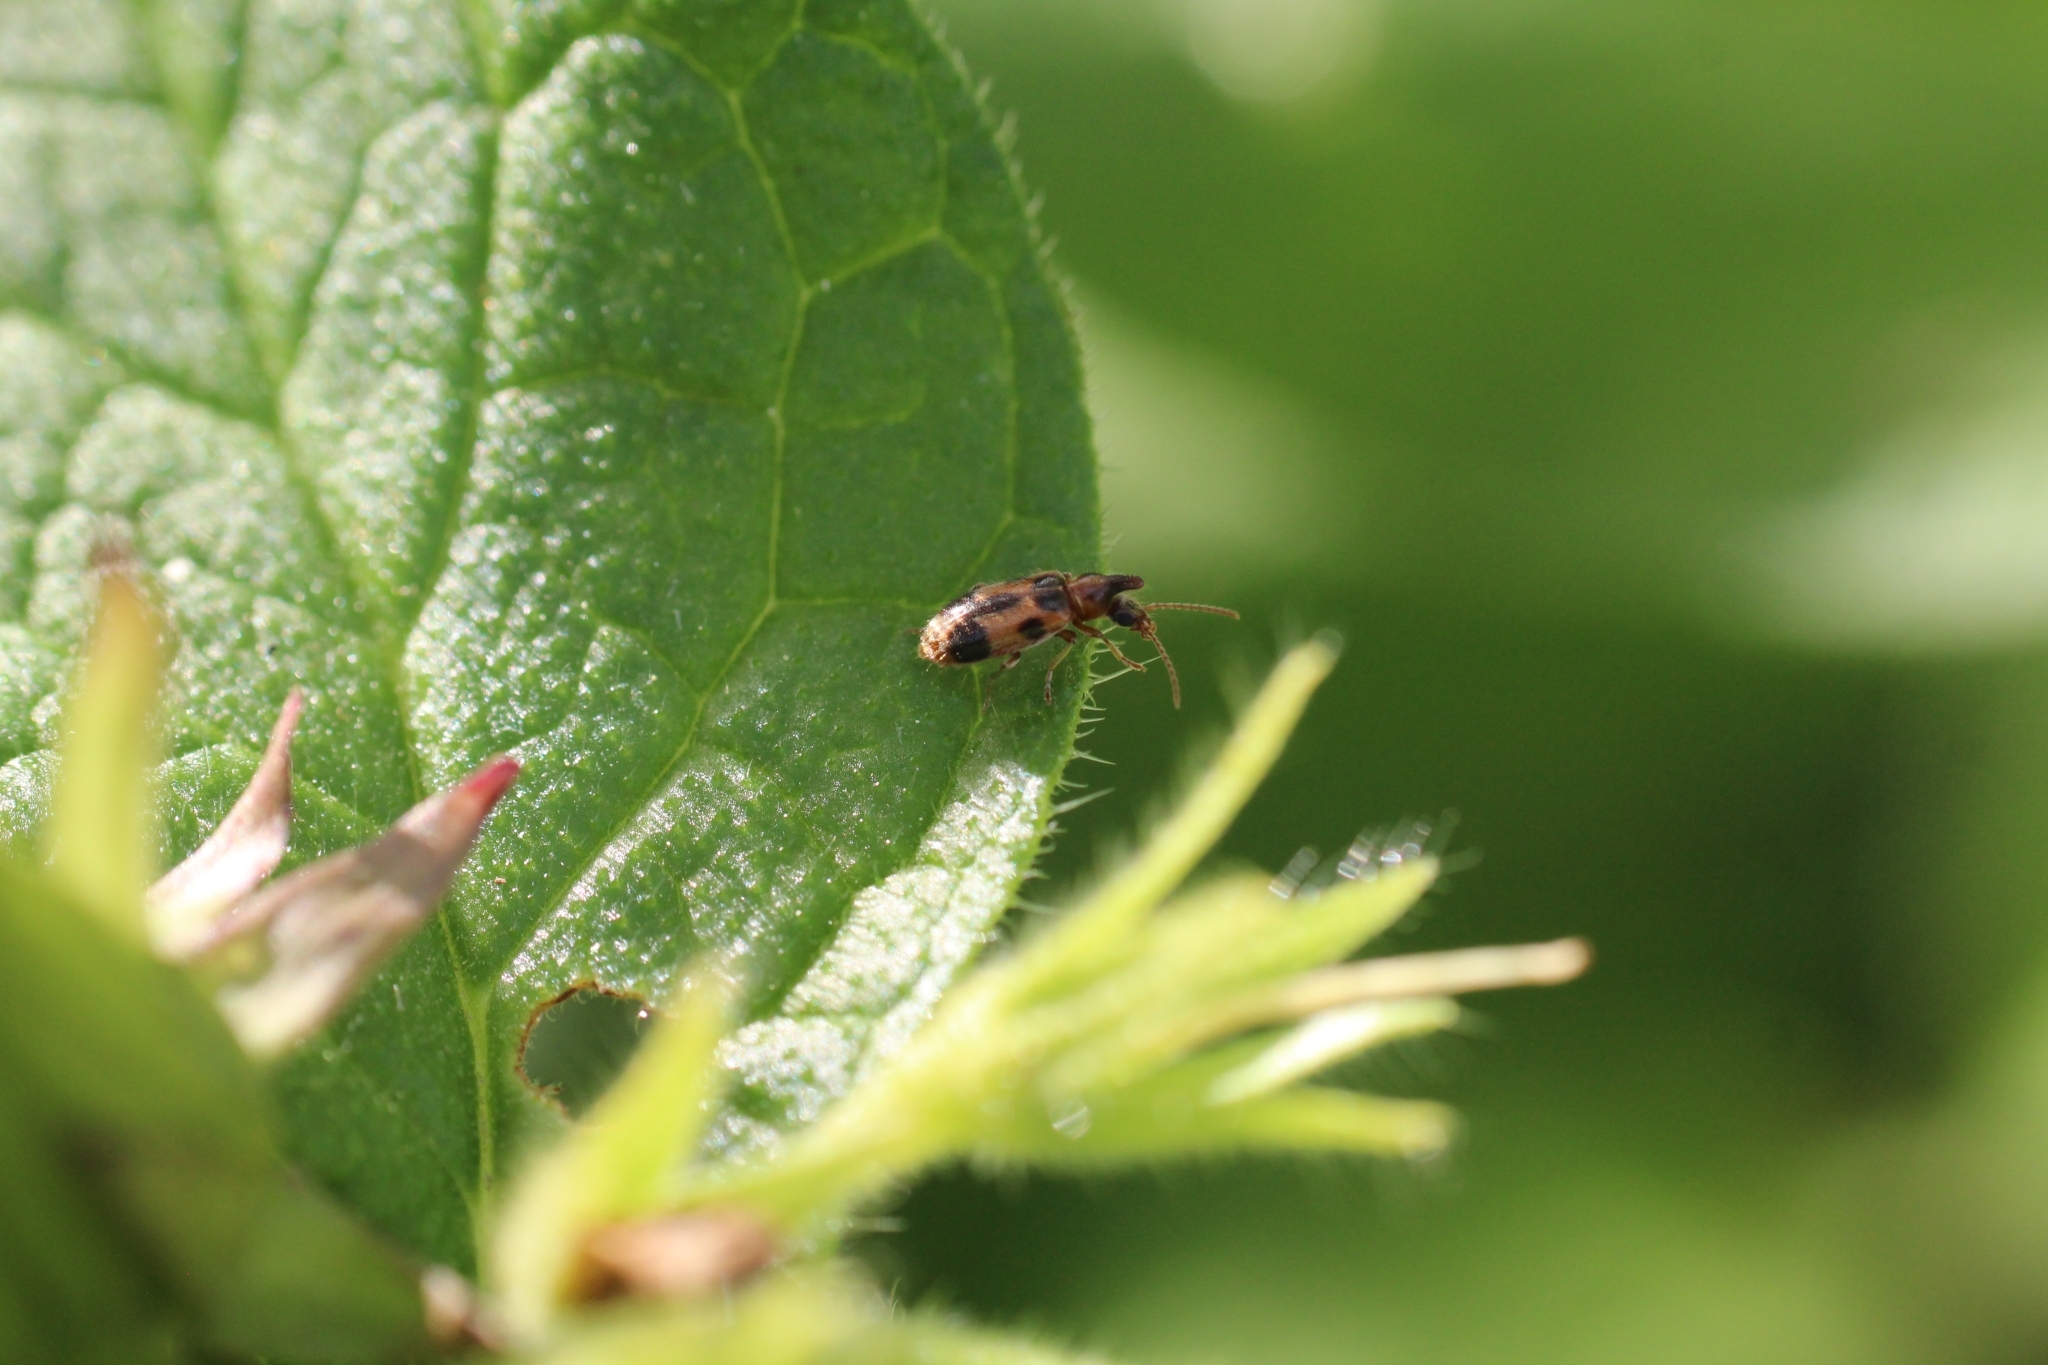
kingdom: Animalia
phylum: Arthropoda
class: Insecta
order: Coleoptera
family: Anthicidae
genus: Notoxus
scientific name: Notoxus monoceros
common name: Monoceros beetle
